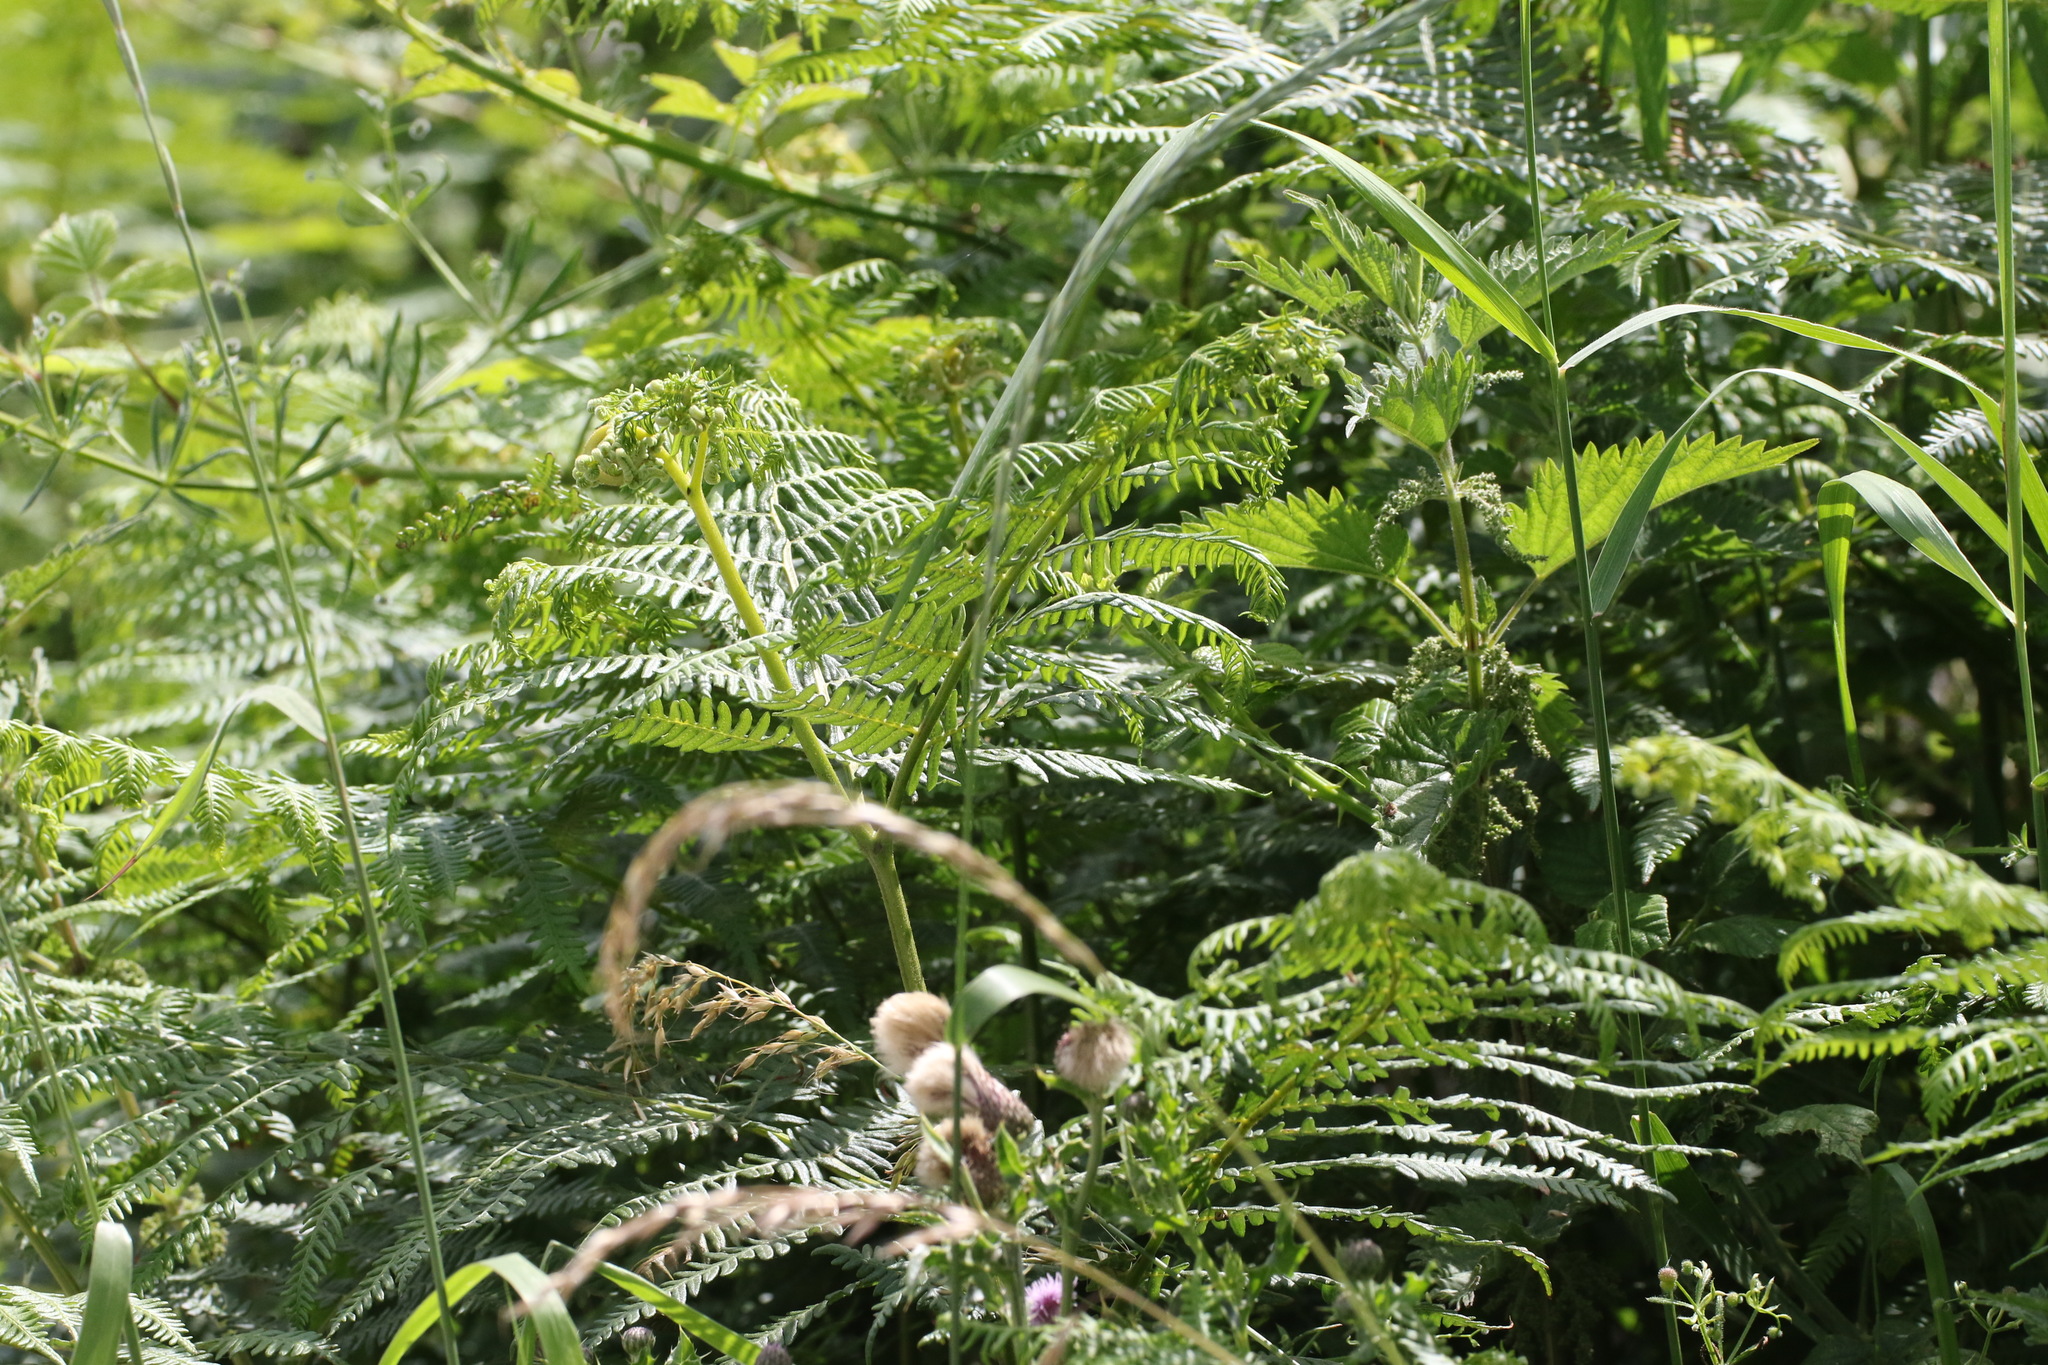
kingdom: Plantae
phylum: Tracheophyta
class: Polypodiopsida
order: Polypodiales
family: Dennstaedtiaceae
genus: Pteridium
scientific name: Pteridium aquilinum
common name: Bracken
